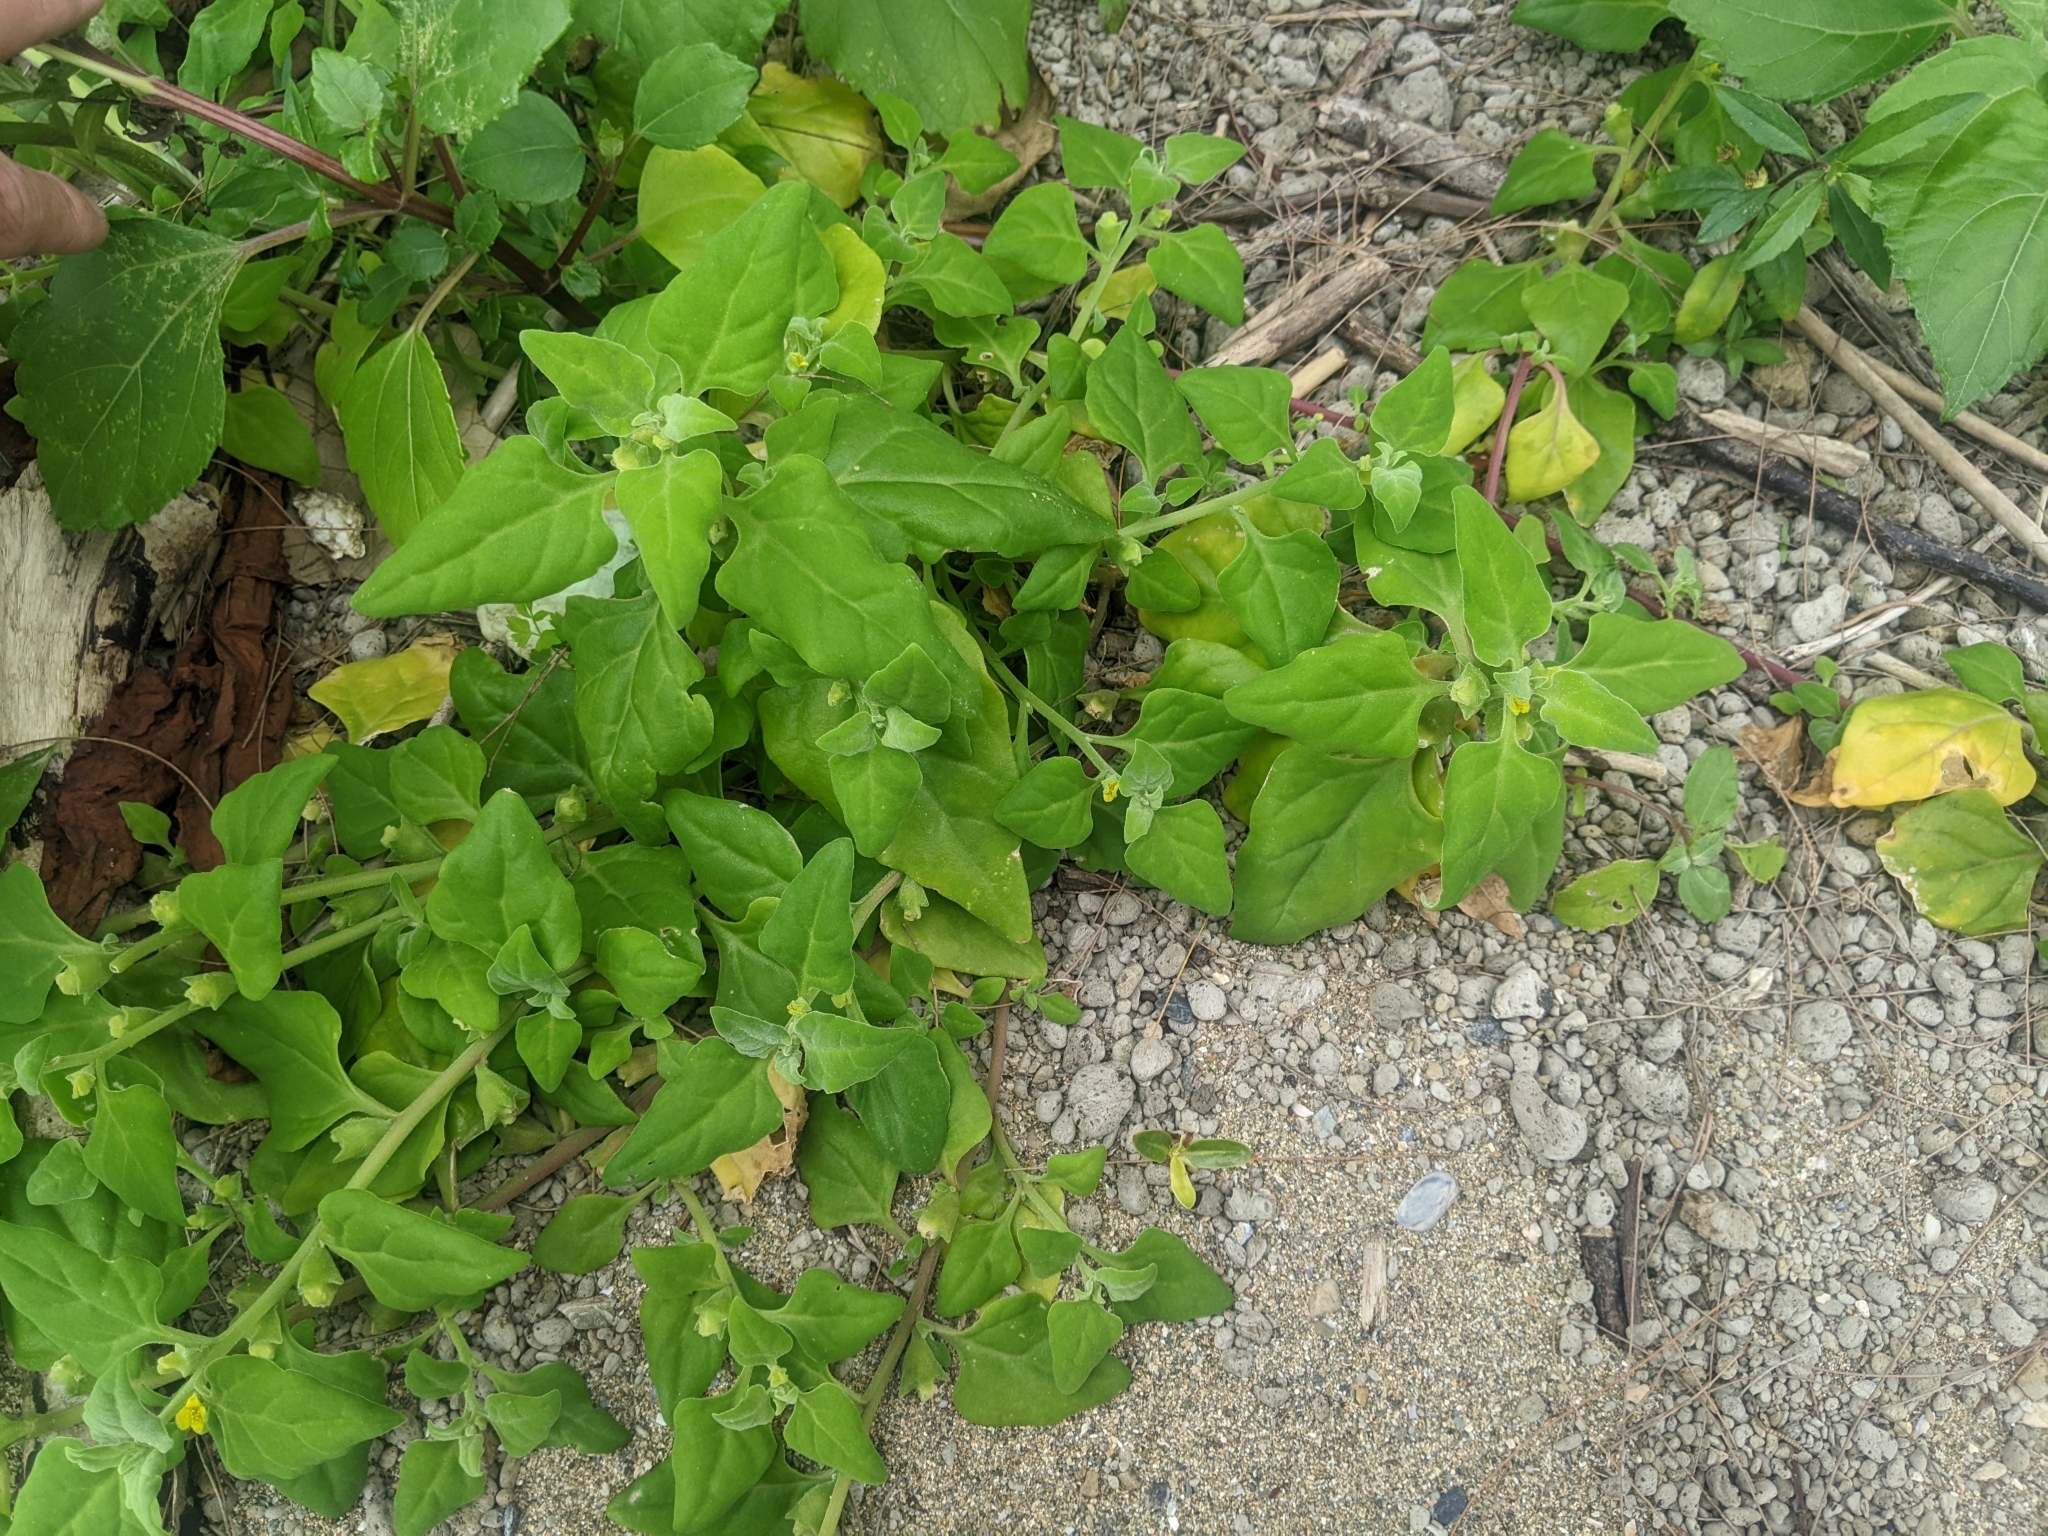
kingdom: Plantae
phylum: Tracheophyta
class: Magnoliopsida
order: Caryophyllales
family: Aizoaceae
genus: Tetragonia
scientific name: Tetragonia tetragonoides
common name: New zealand-spinach
